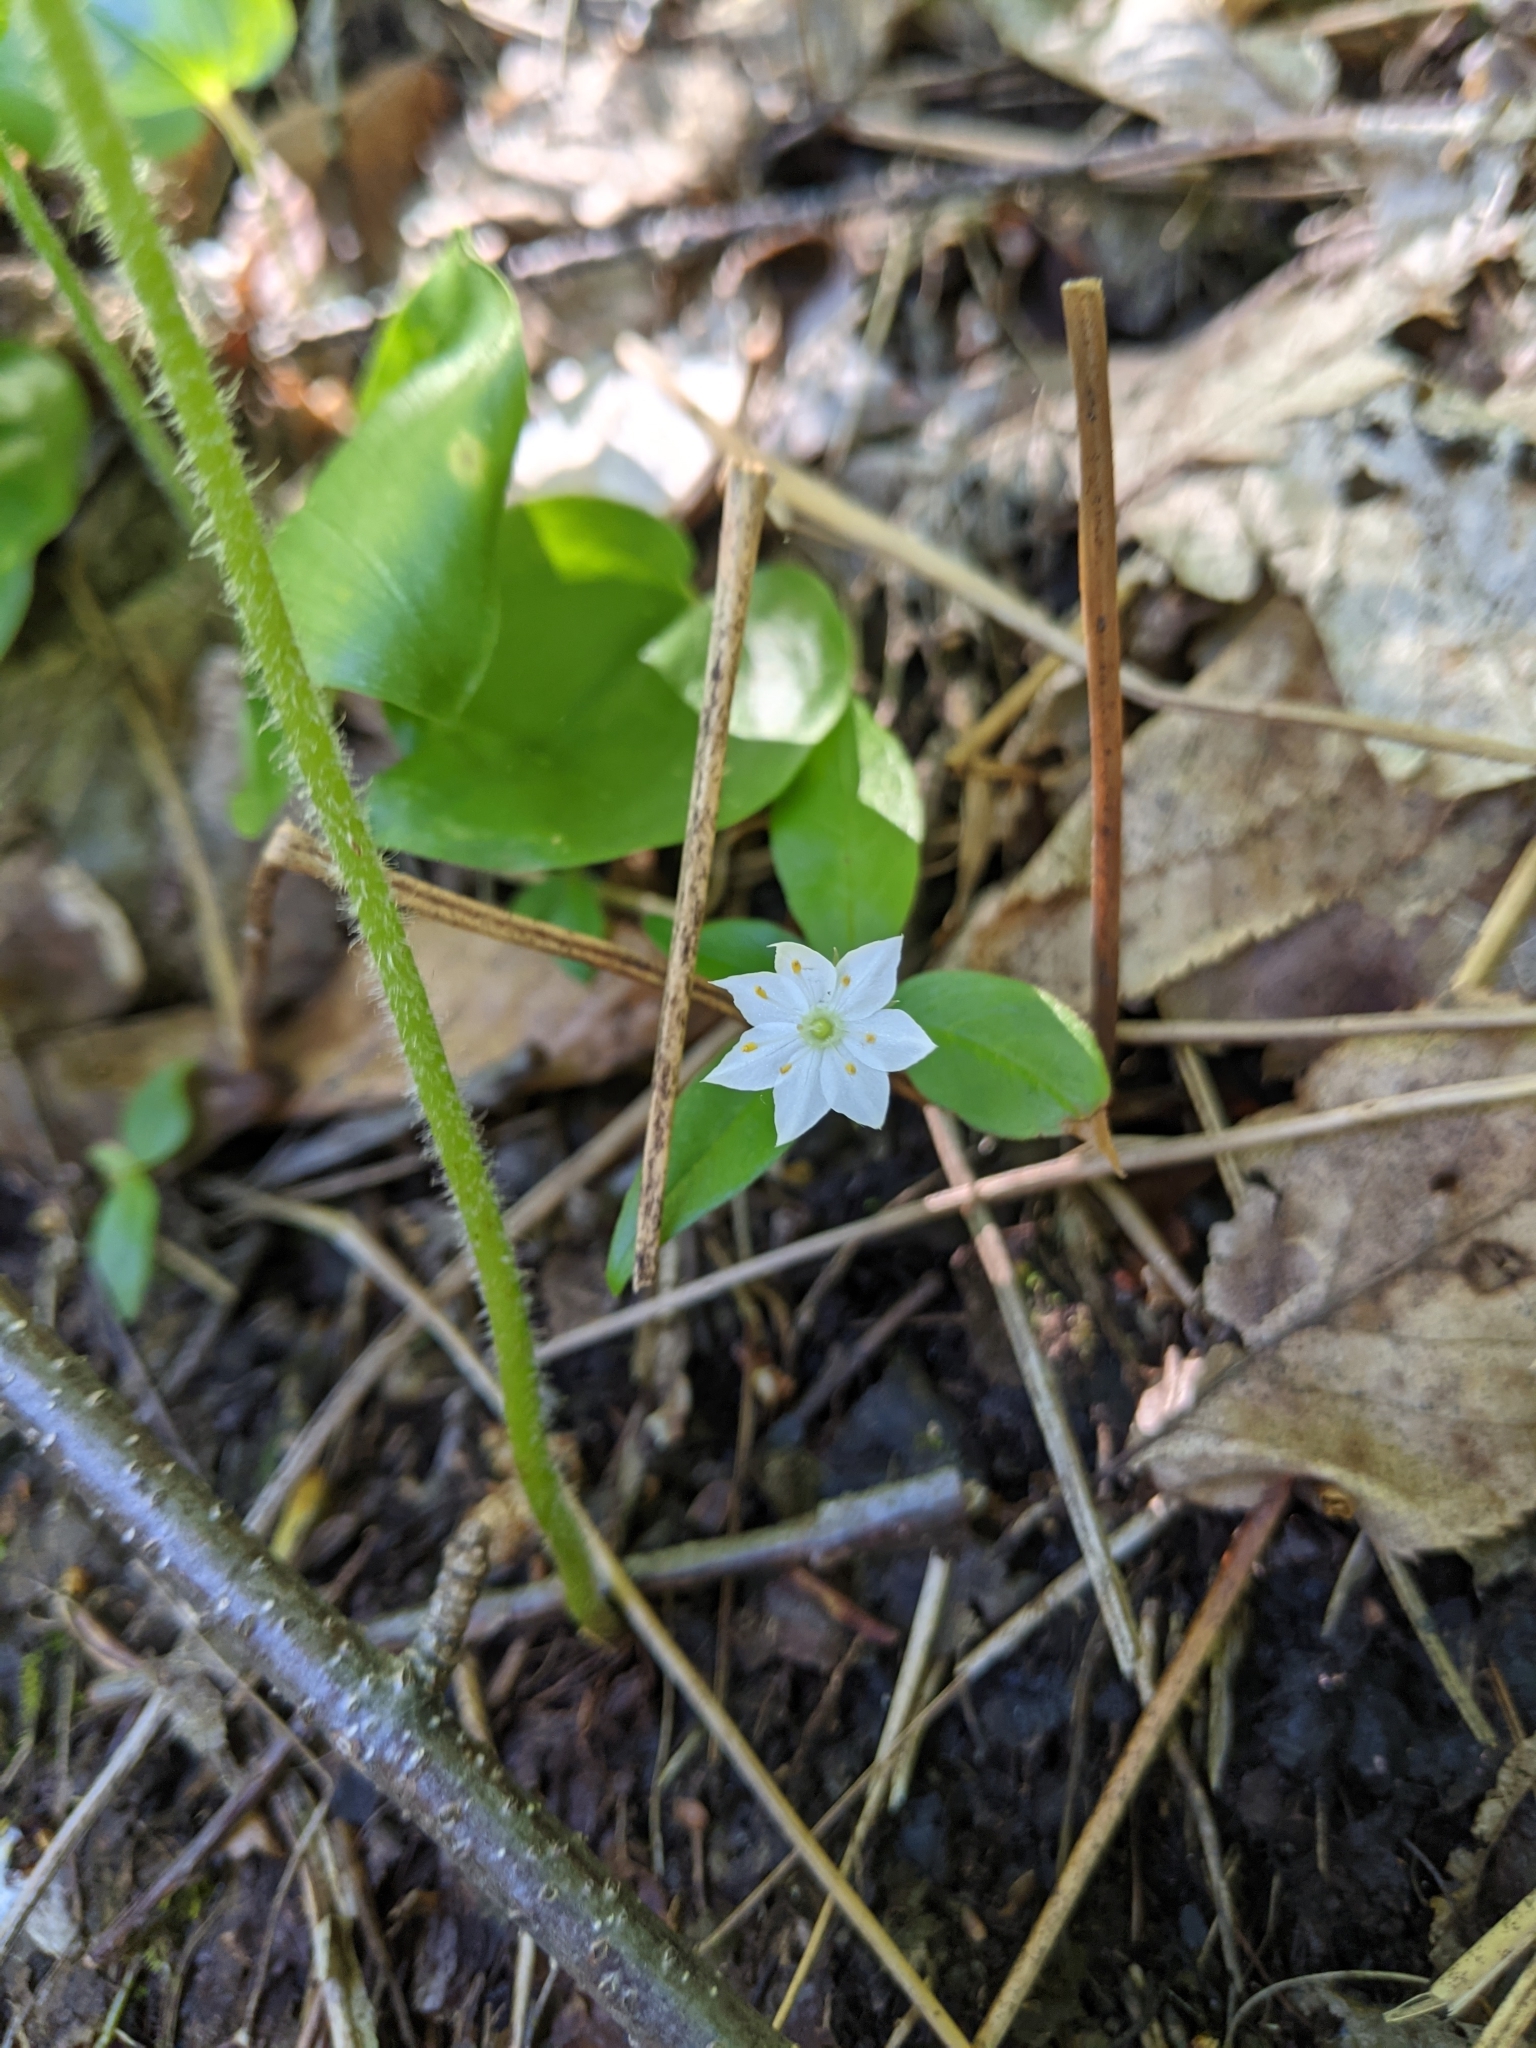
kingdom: Plantae
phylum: Tracheophyta
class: Magnoliopsida
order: Ericales
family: Primulaceae
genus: Lysimachia
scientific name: Lysimachia borealis
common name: American starflower
